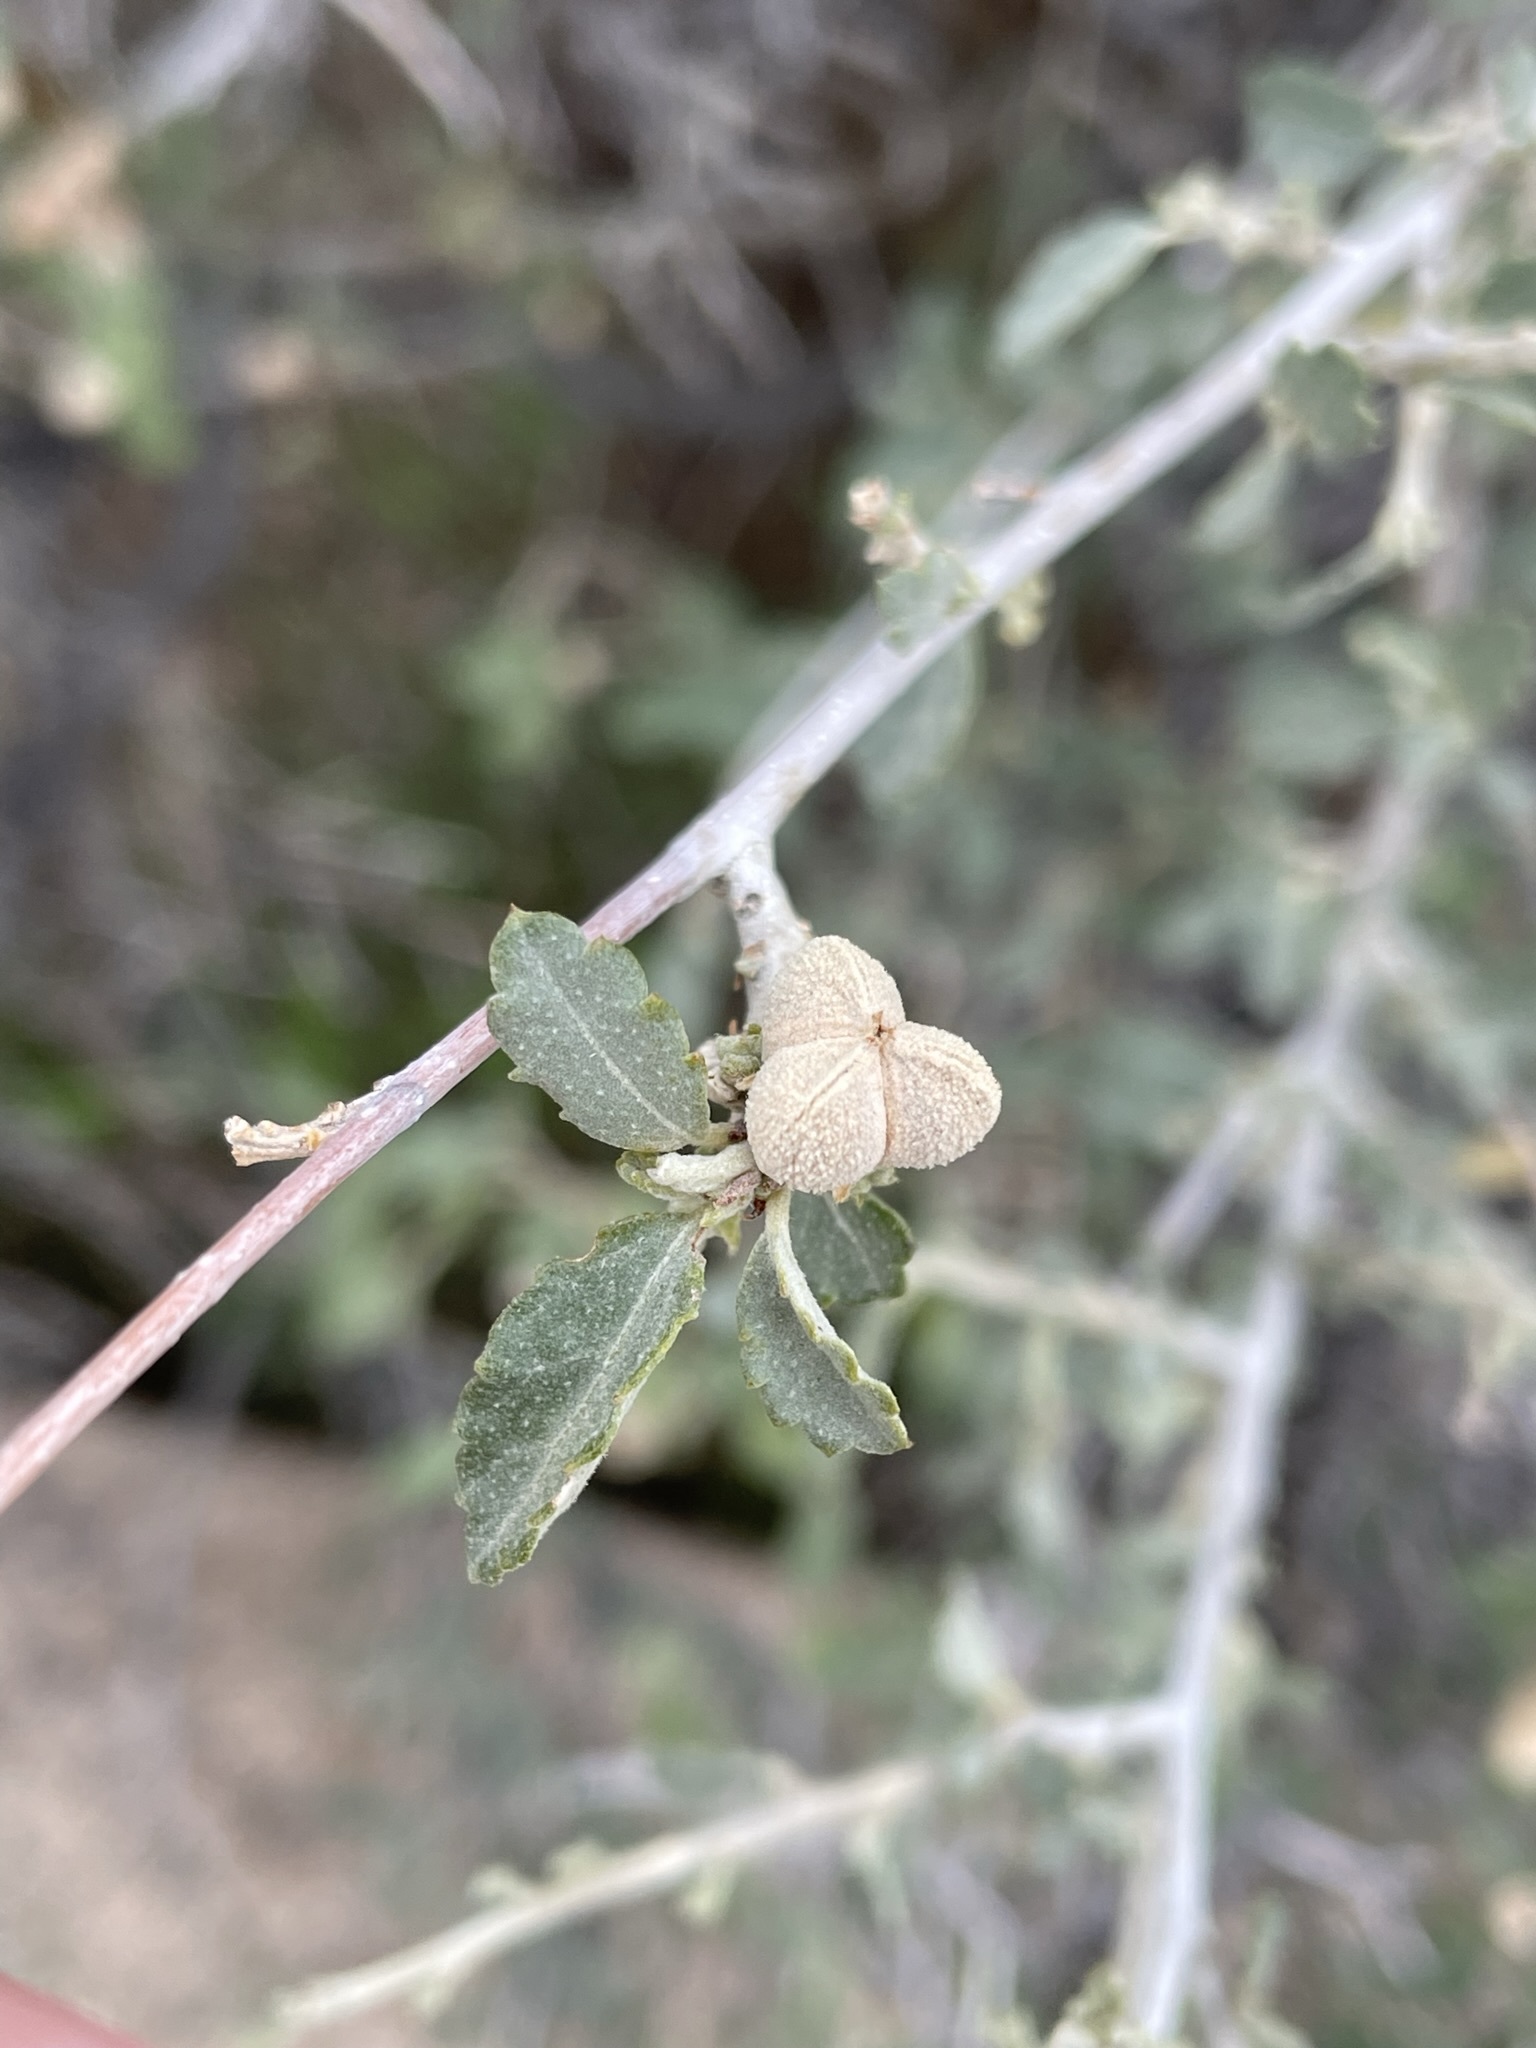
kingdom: Plantae
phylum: Tracheophyta
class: Magnoliopsida
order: Malpighiales
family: Euphorbiaceae
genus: Bernardia
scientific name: Bernardia incana
